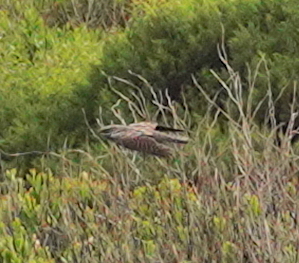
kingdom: Animalia
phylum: Chordata
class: Aves
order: Caprimulgiformes
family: Caprimulgidae
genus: Caprimulgus
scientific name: Caprimulgus europaeus
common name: European nightjar
